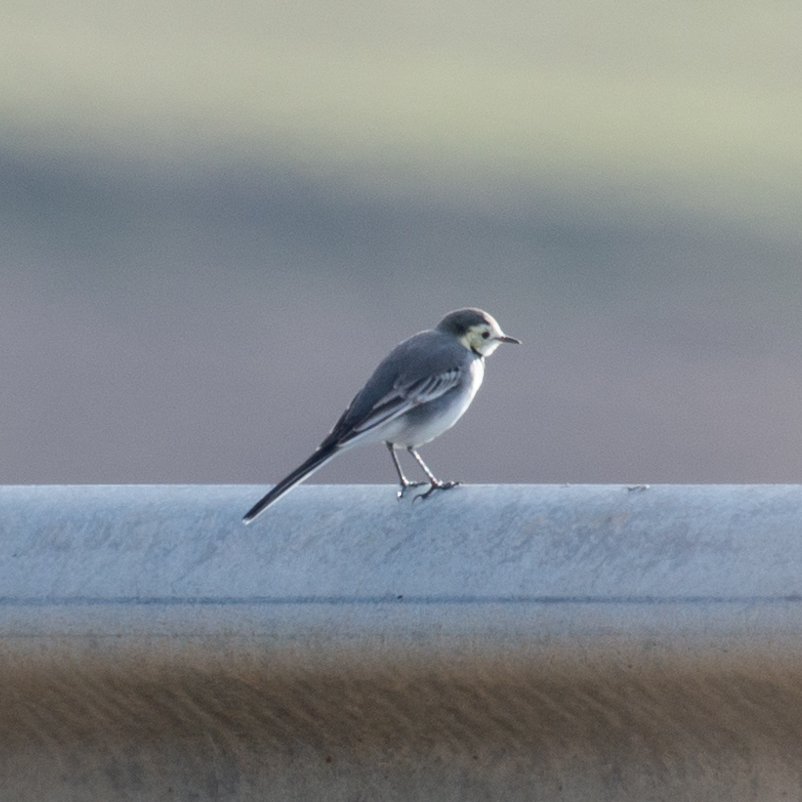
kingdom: Animalia
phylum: Chordata
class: Aves
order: Passeriformes
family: Motacillidae
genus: Motacilla
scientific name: Motacilla alba
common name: White wagtail
